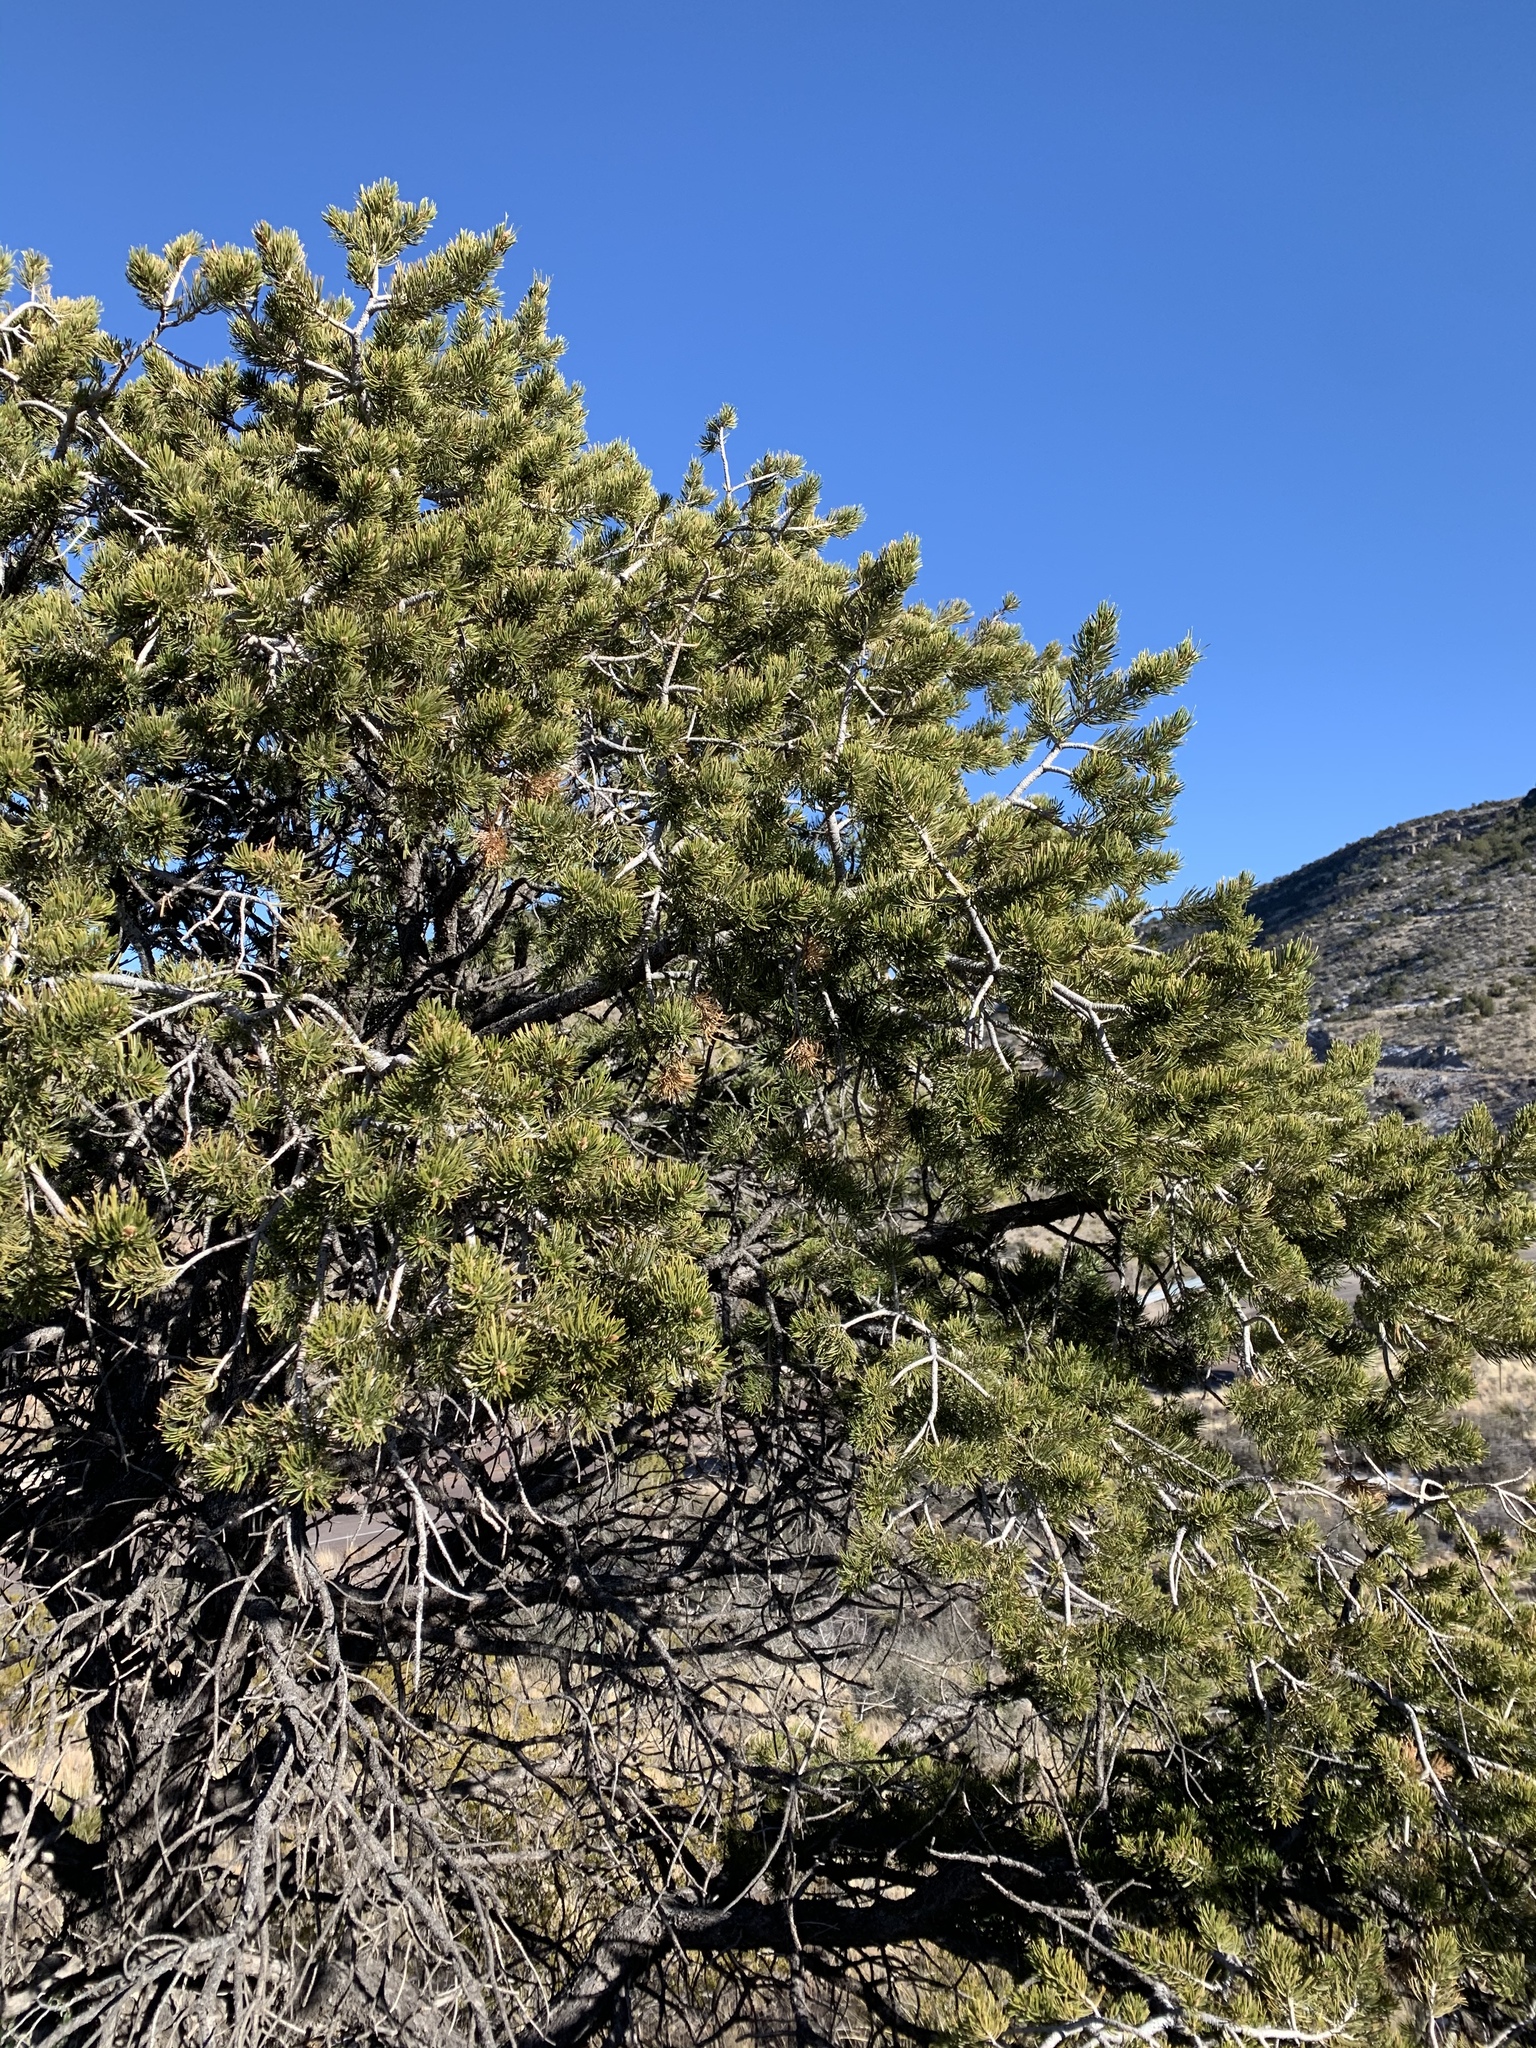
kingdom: Plantae
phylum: Tracheophyta
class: Pinopsida
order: Pinales
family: Pinaceae
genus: Pinus
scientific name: Pinus edulis
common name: Colorado pinyon
